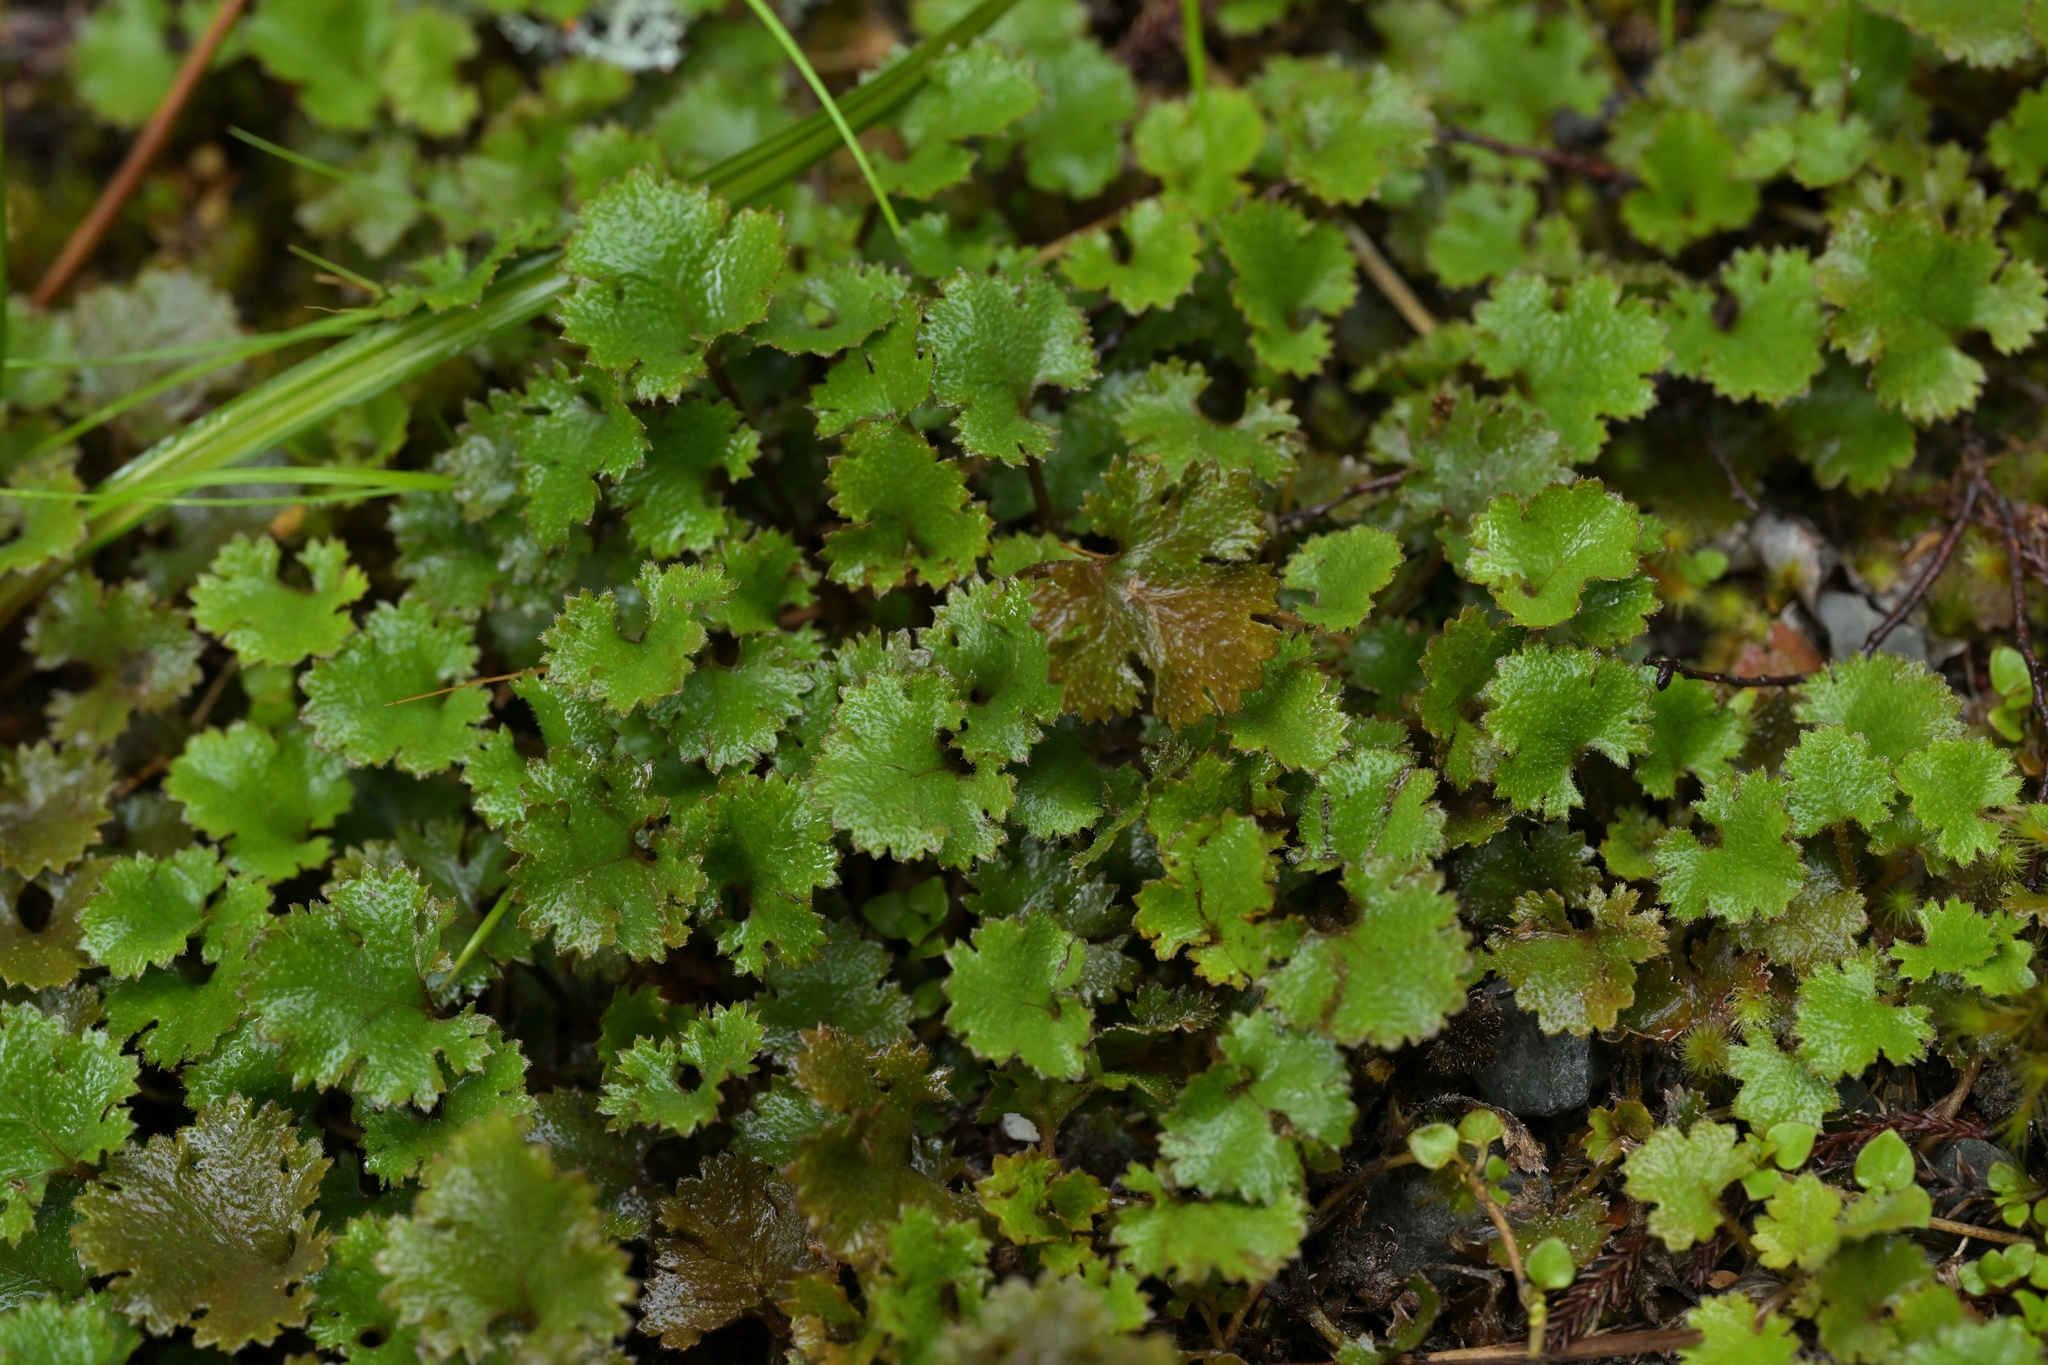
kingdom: Plantae
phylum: Tracheophyta
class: Magnoliopsida
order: Gunnerales
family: Gunneraceae
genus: Gunnera
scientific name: Gunnera monoica
